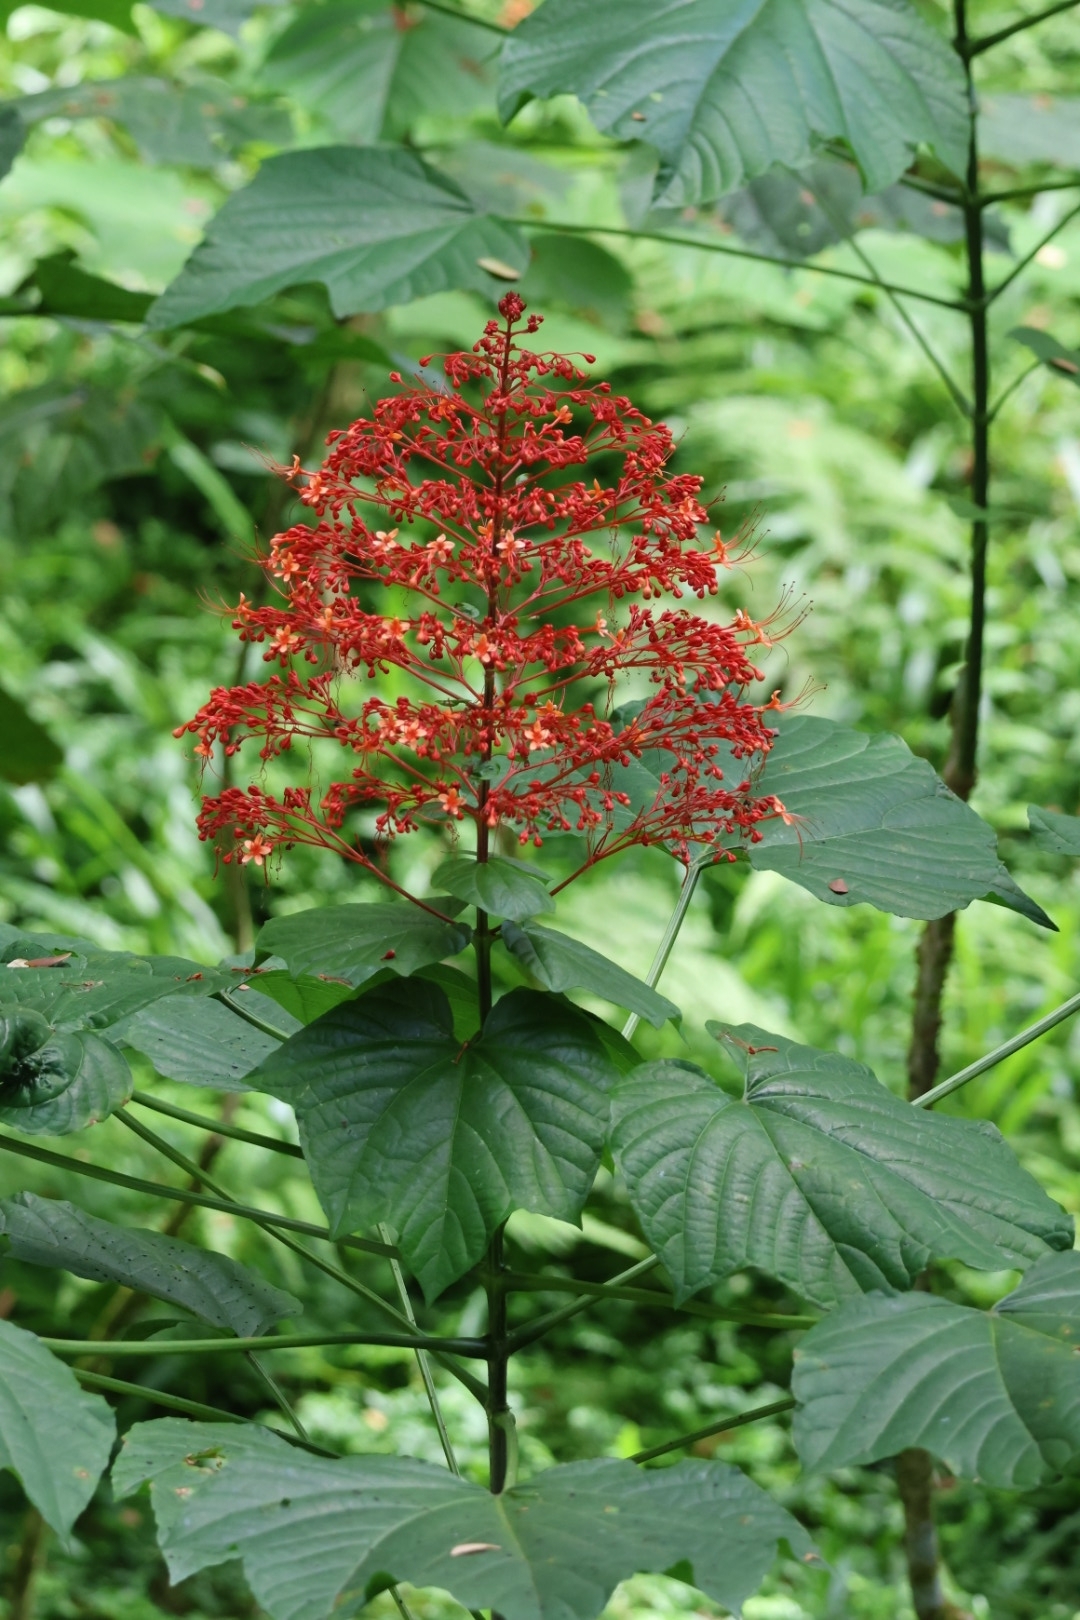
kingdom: Plantae
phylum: Tracheophyta
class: Magnoliopsida
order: Lamiales
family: Lamiaceae
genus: Clerodendrum
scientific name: Clerodendrum paniculatum
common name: Pagoda-flower
